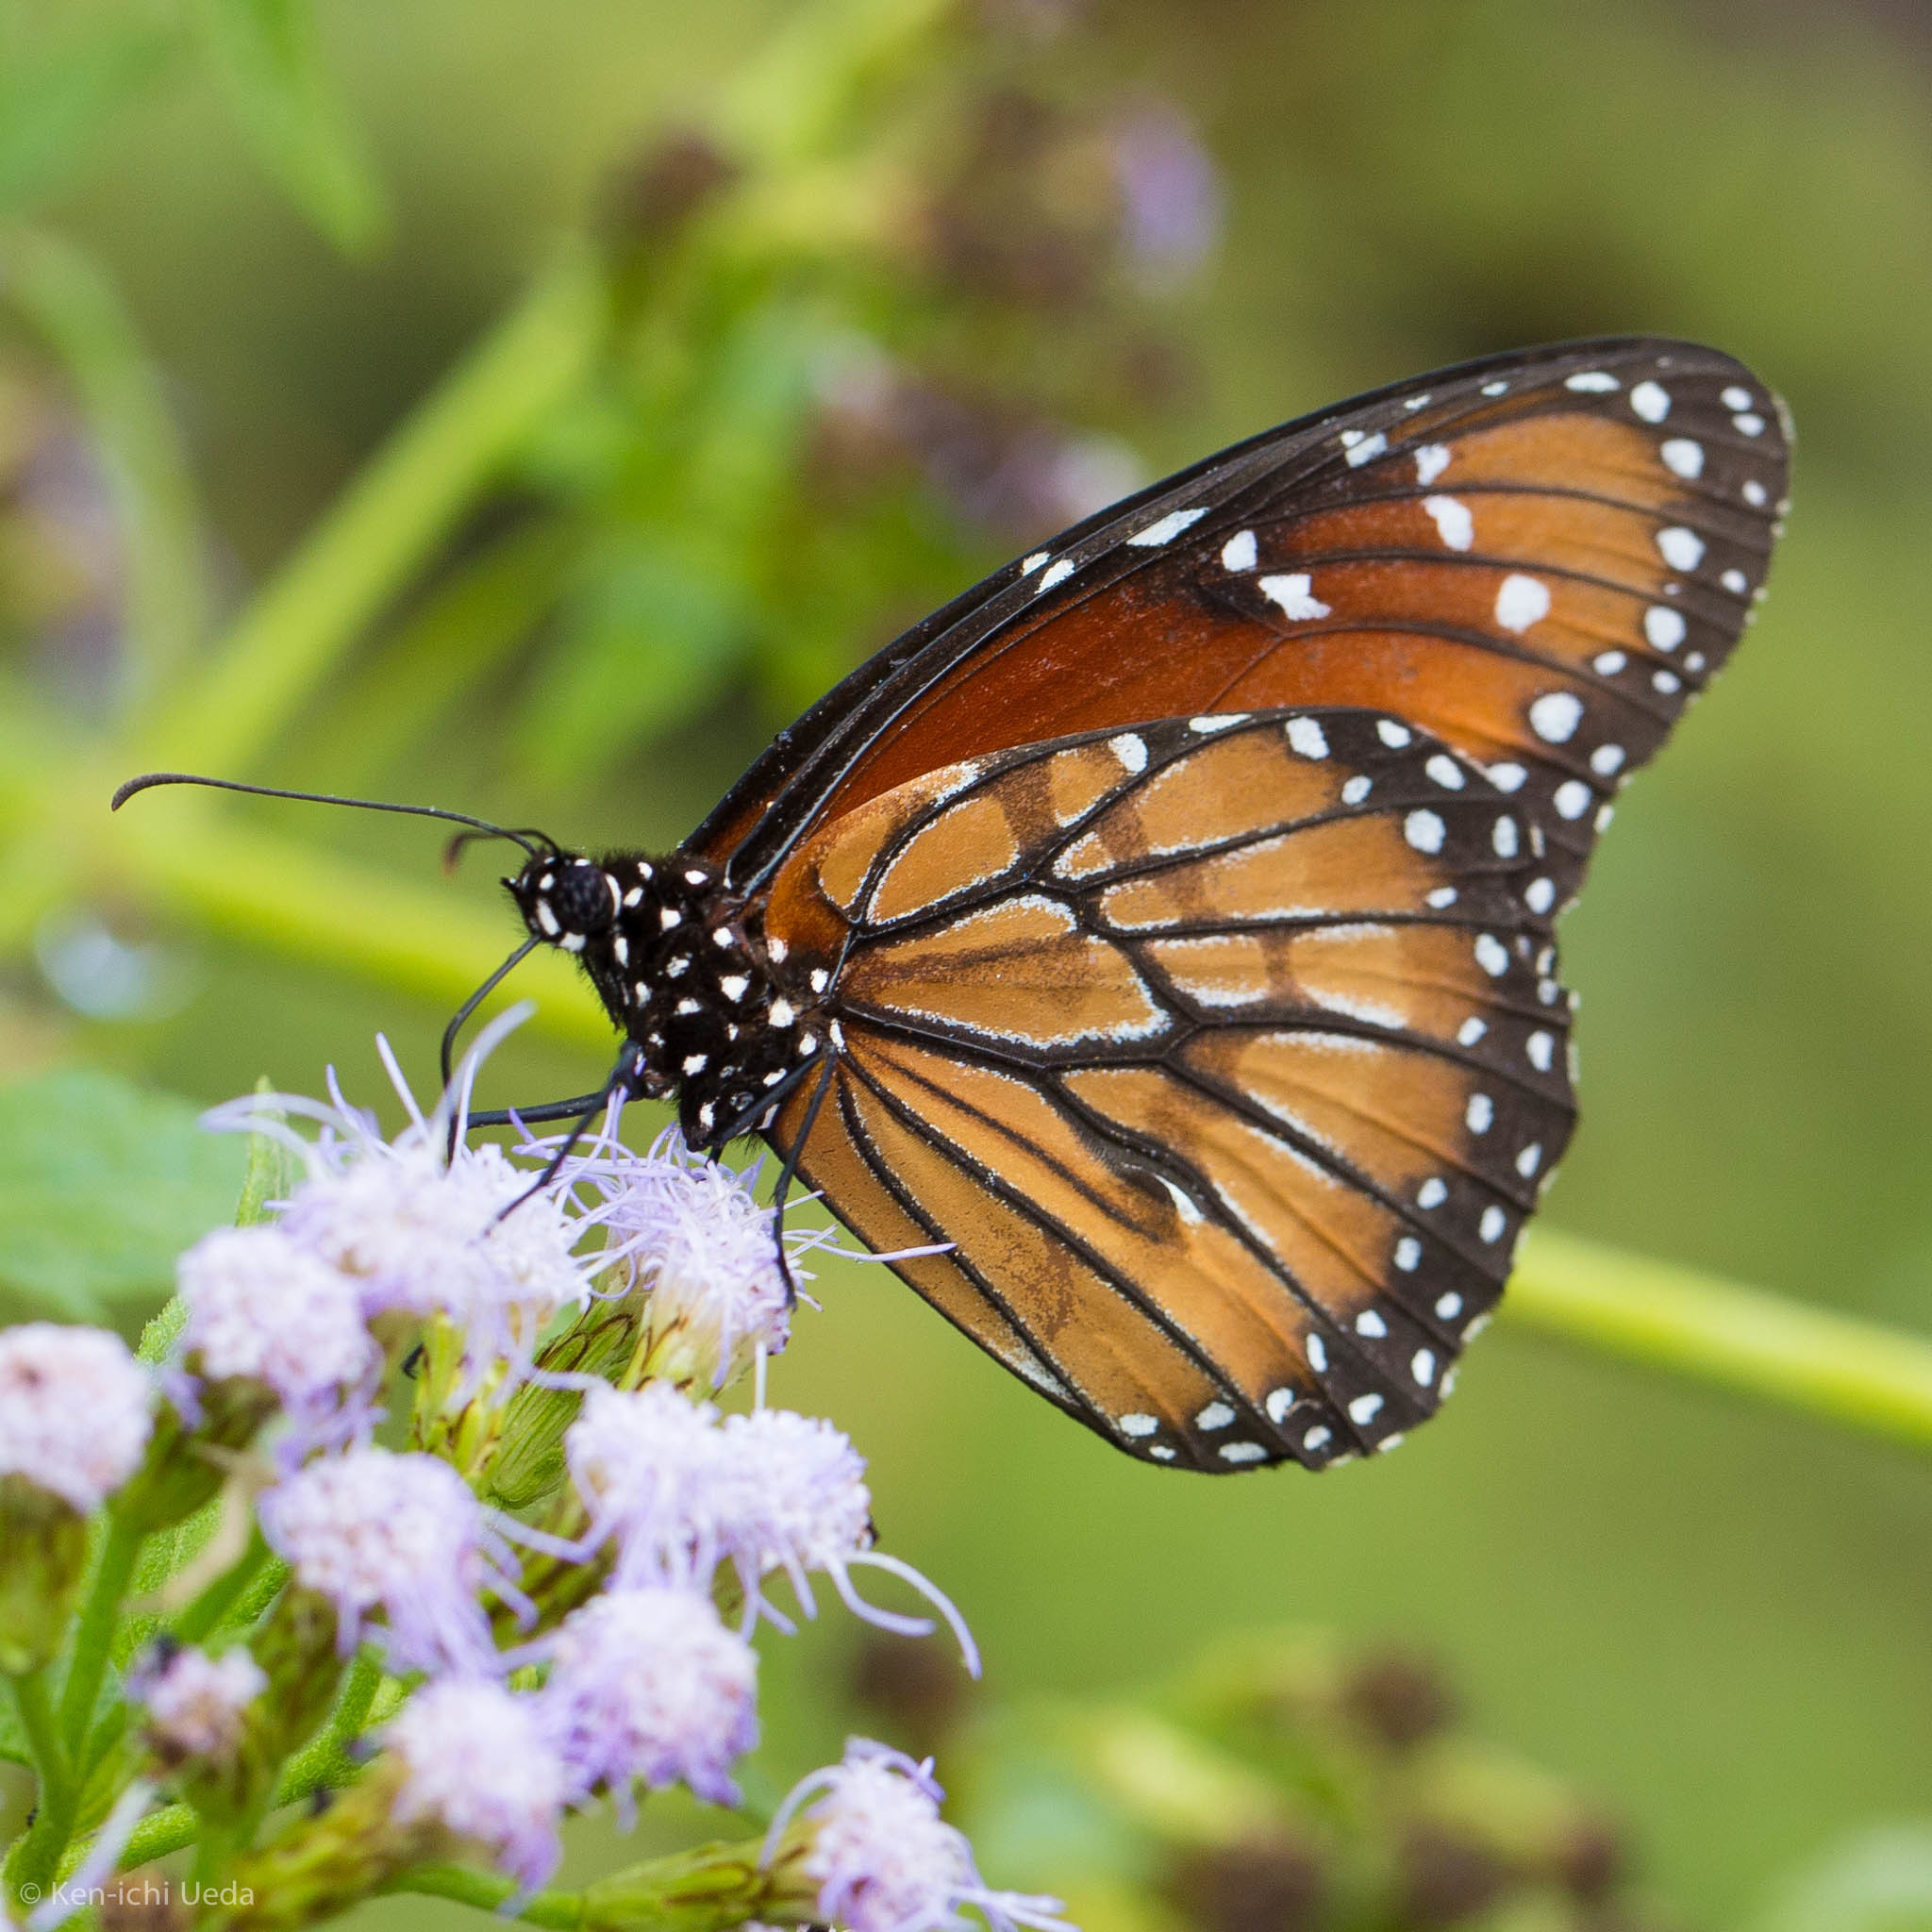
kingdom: Animalia
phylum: Arthropoda
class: Insecta
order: Lepidoptera
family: Nymphalidae
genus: Danaus
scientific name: Danaus eresimus
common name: Soldier
